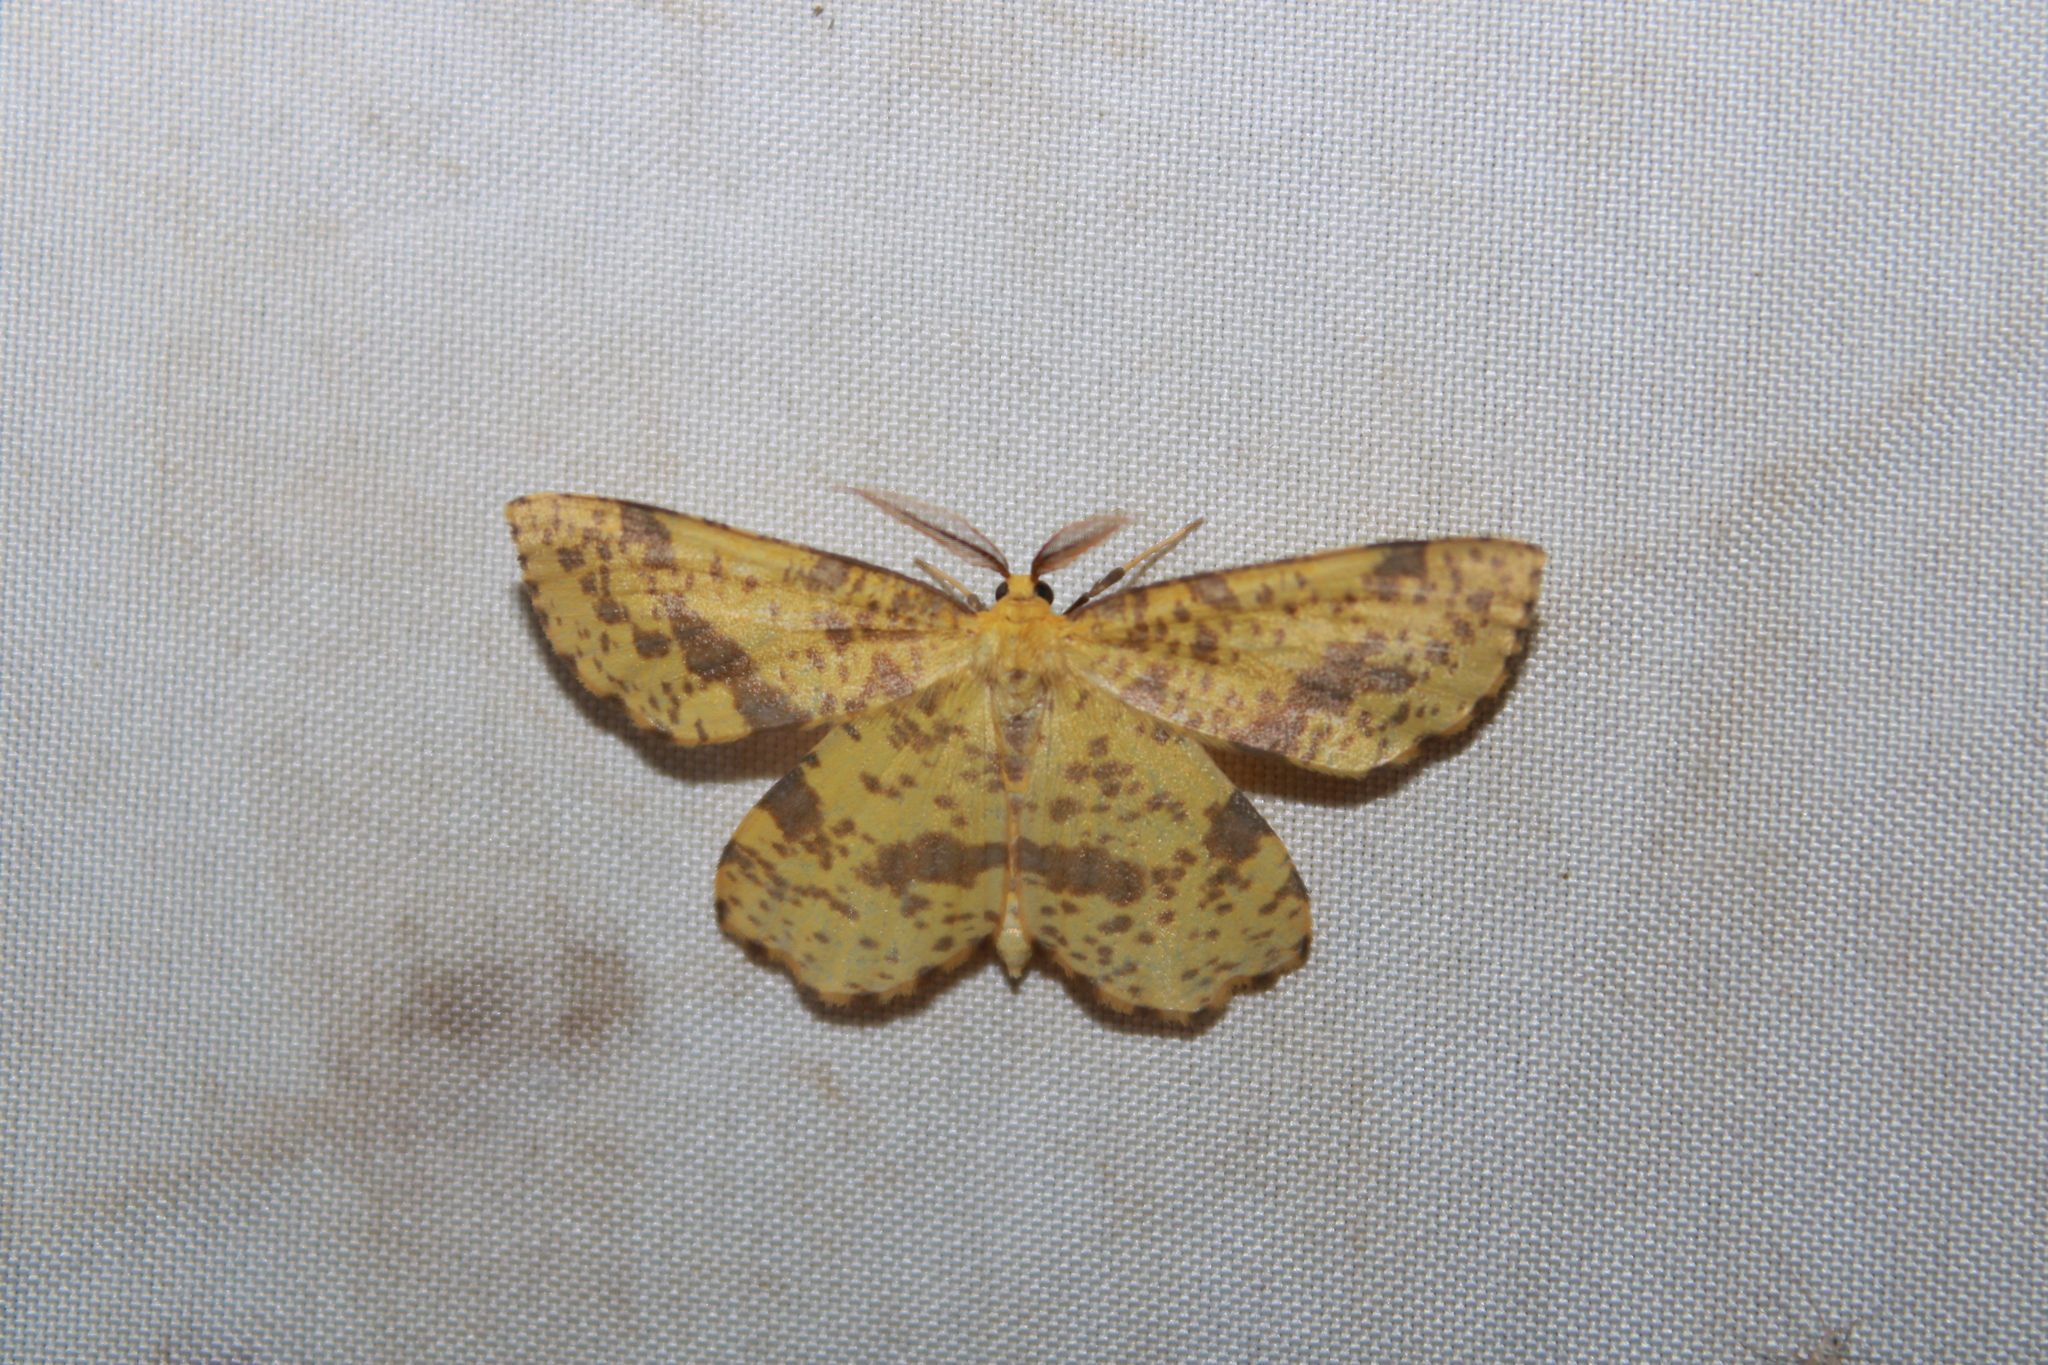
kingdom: Animalia
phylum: Arthropoda
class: Insecta
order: Lepidoptera
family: Geometridae
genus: Xanthotype
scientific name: Xanthotype
